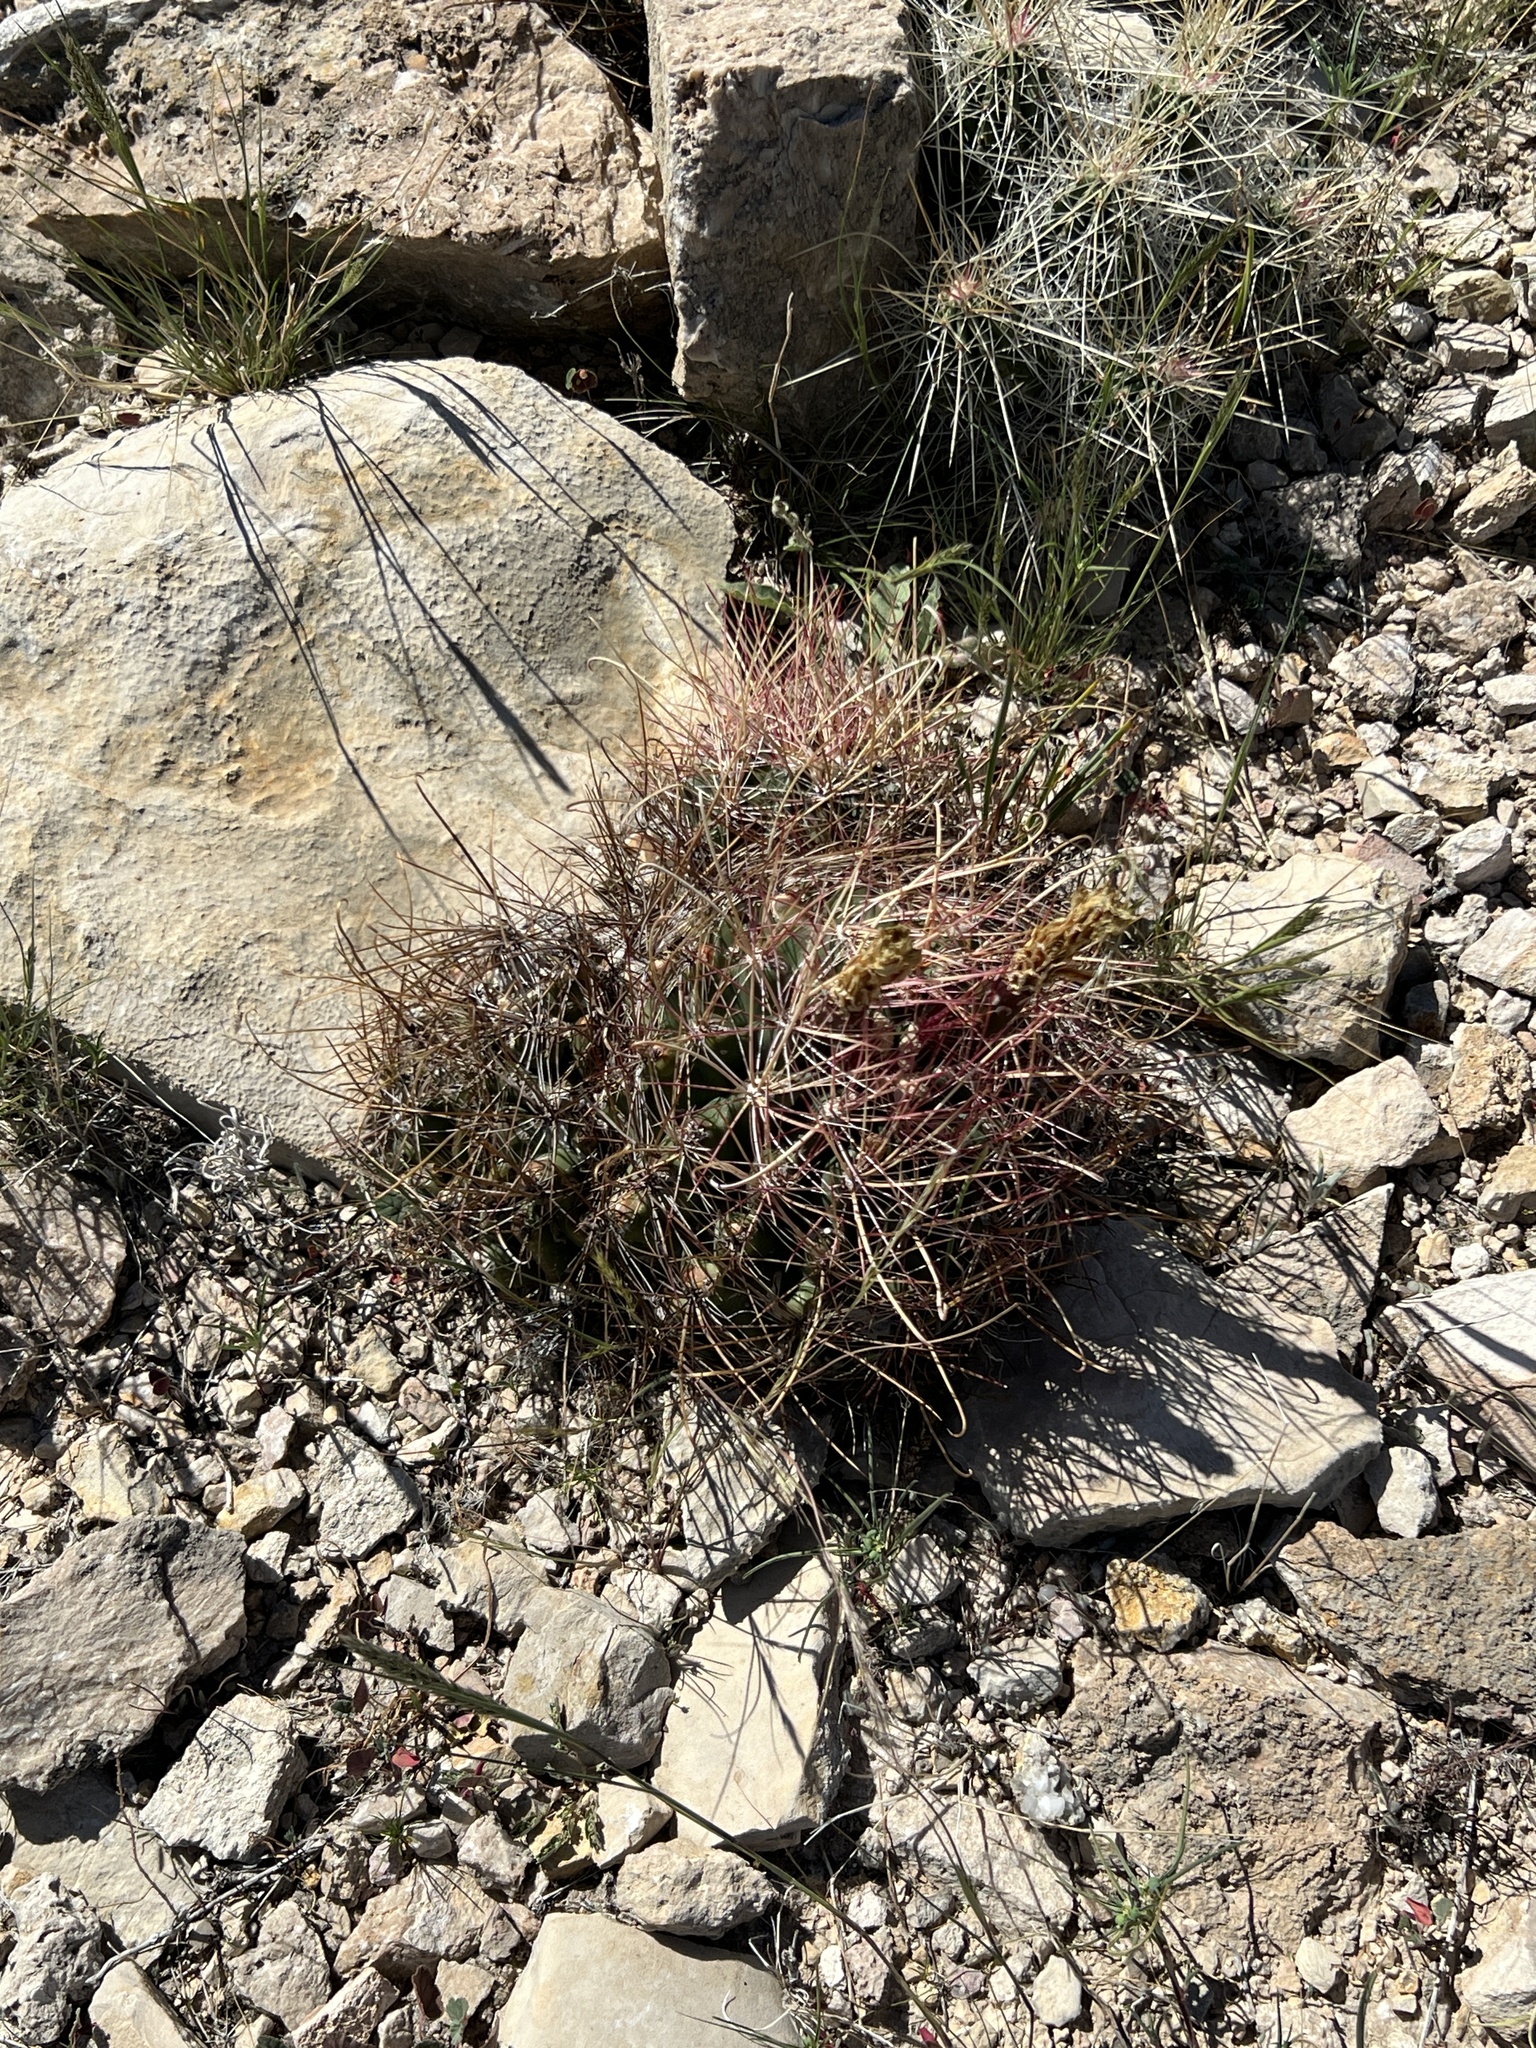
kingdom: Plantae
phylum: Tracheophyta
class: Magnoliopsida
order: Caryophyllales
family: Cactaceae
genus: Bisnaga
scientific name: Bisnaga hamatacantha
